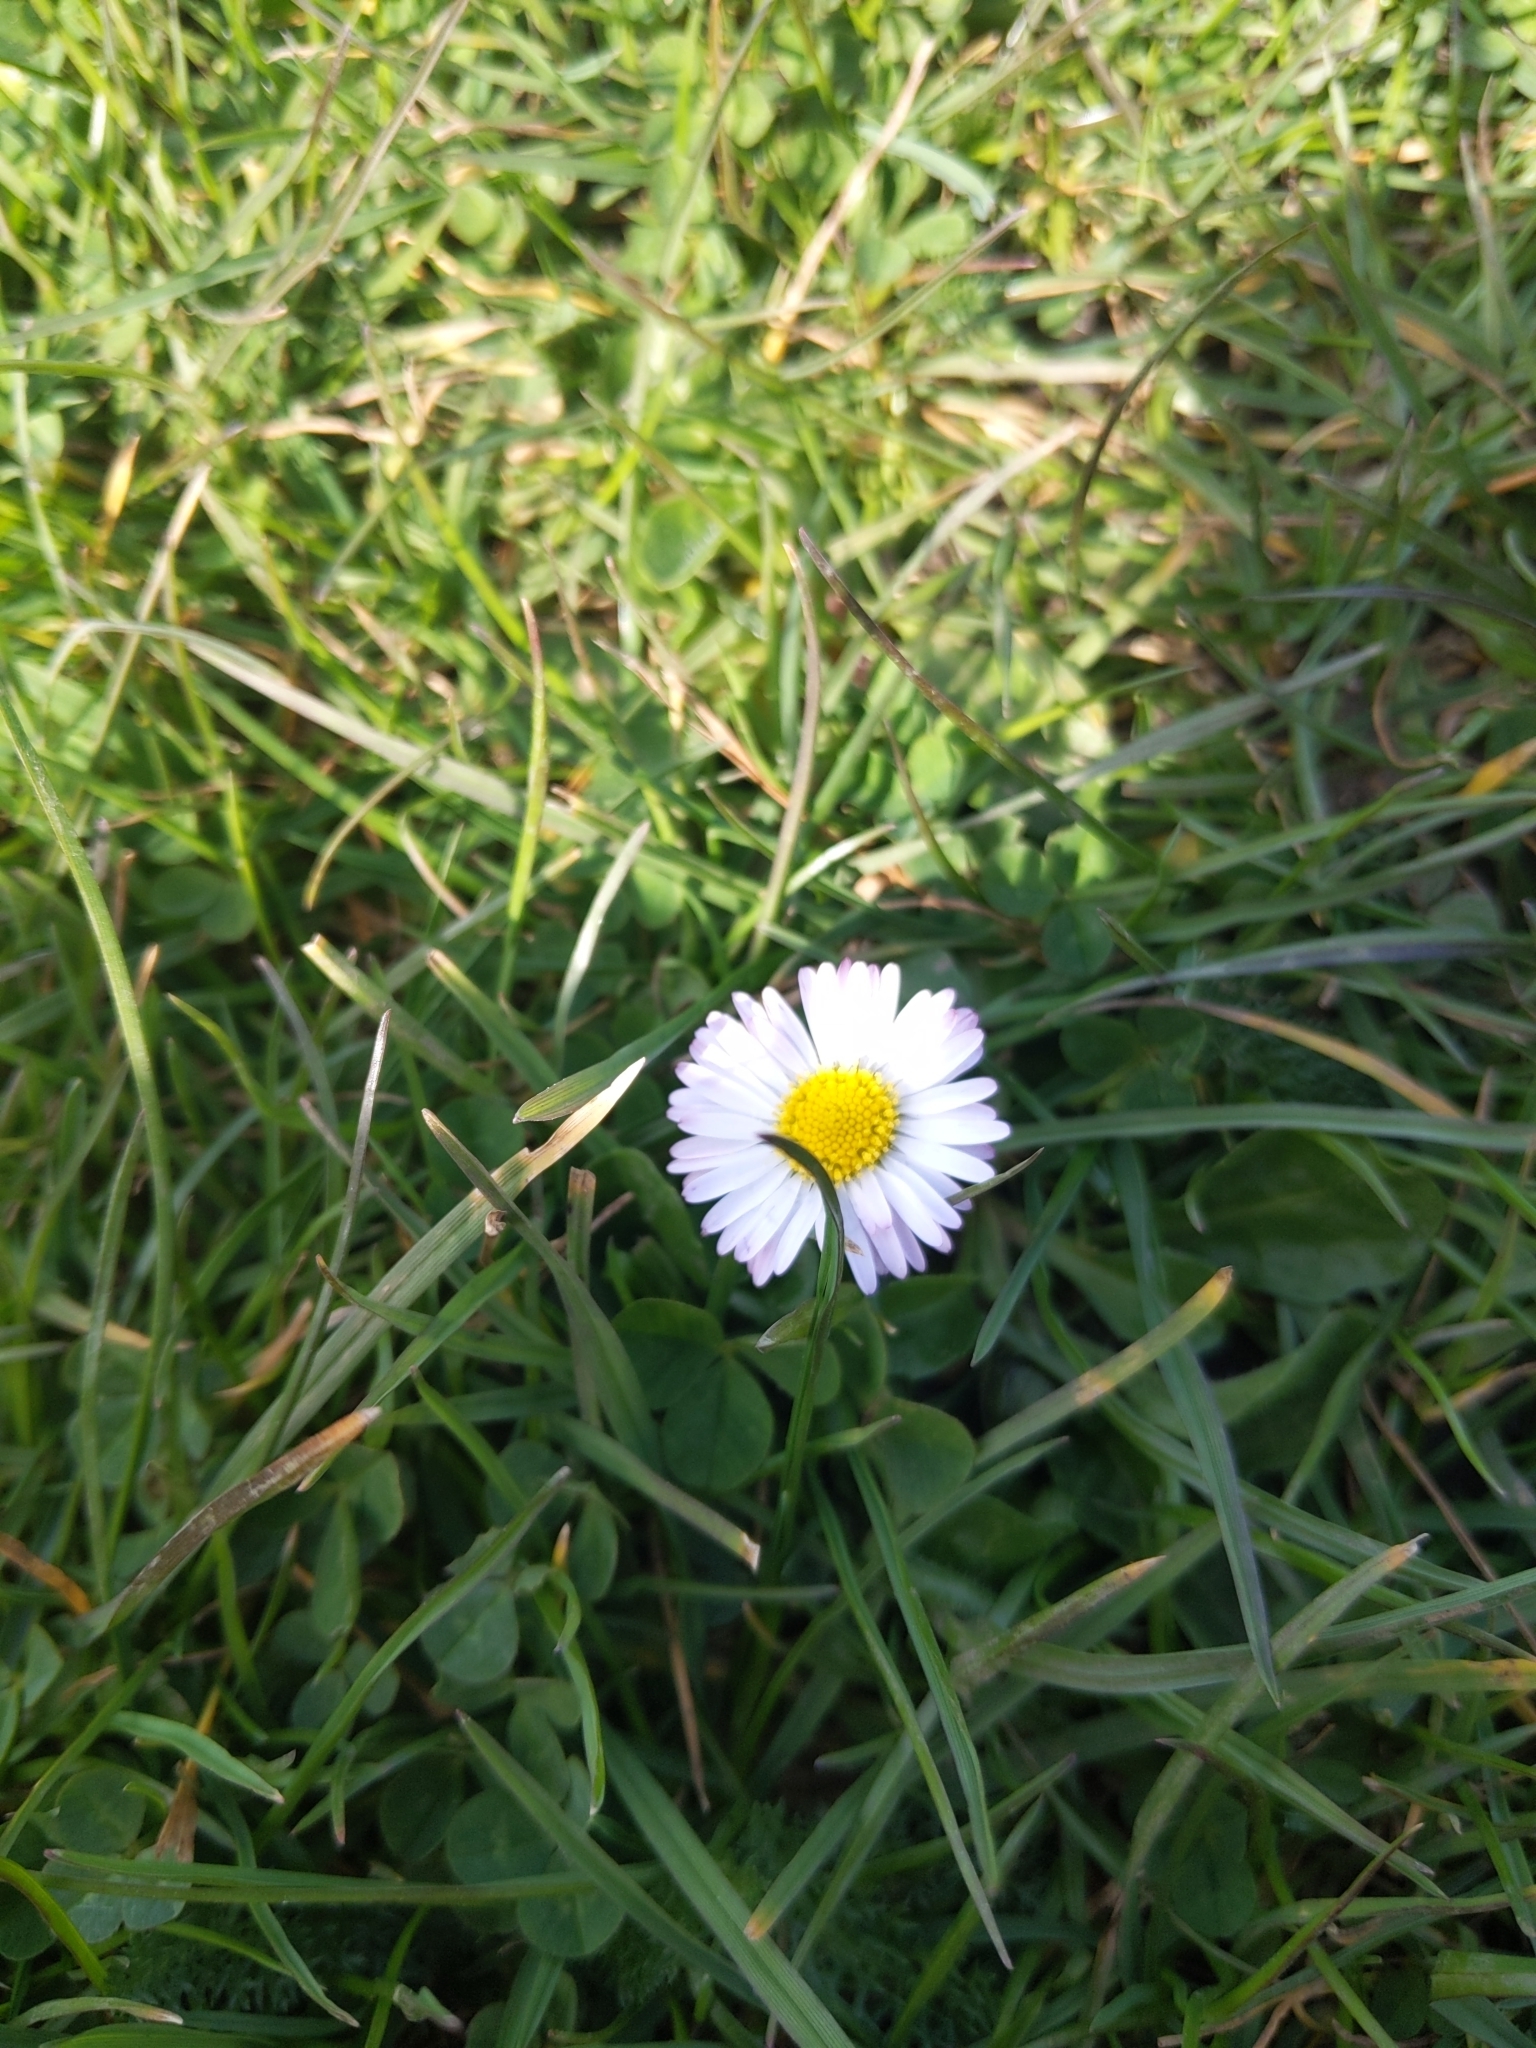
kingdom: Plantae
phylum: Tracheophyta
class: Magnoliopsida
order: Asterales
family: Asteraceae
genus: Bellis
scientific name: Bellis perennis
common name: Lawndaisy
